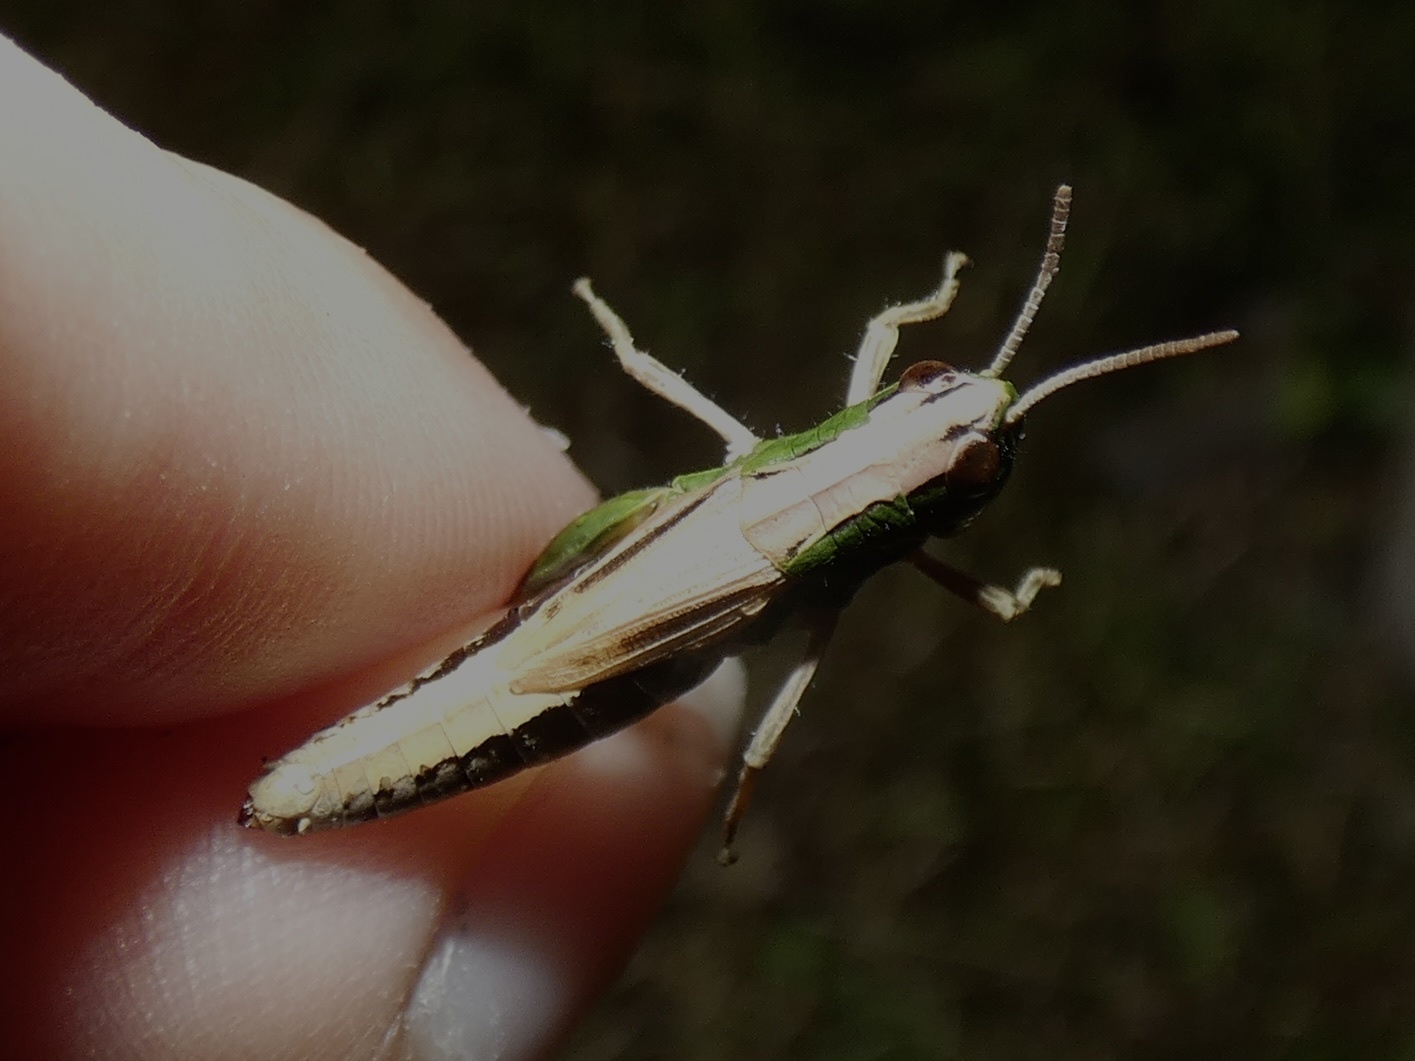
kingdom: Animalia
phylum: Arthropoda
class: Insecta
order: Orthoptera
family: Acrididae
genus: Pseudochorthippus
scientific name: Pseudochorthippus parallelus
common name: Meadow grasshopper
